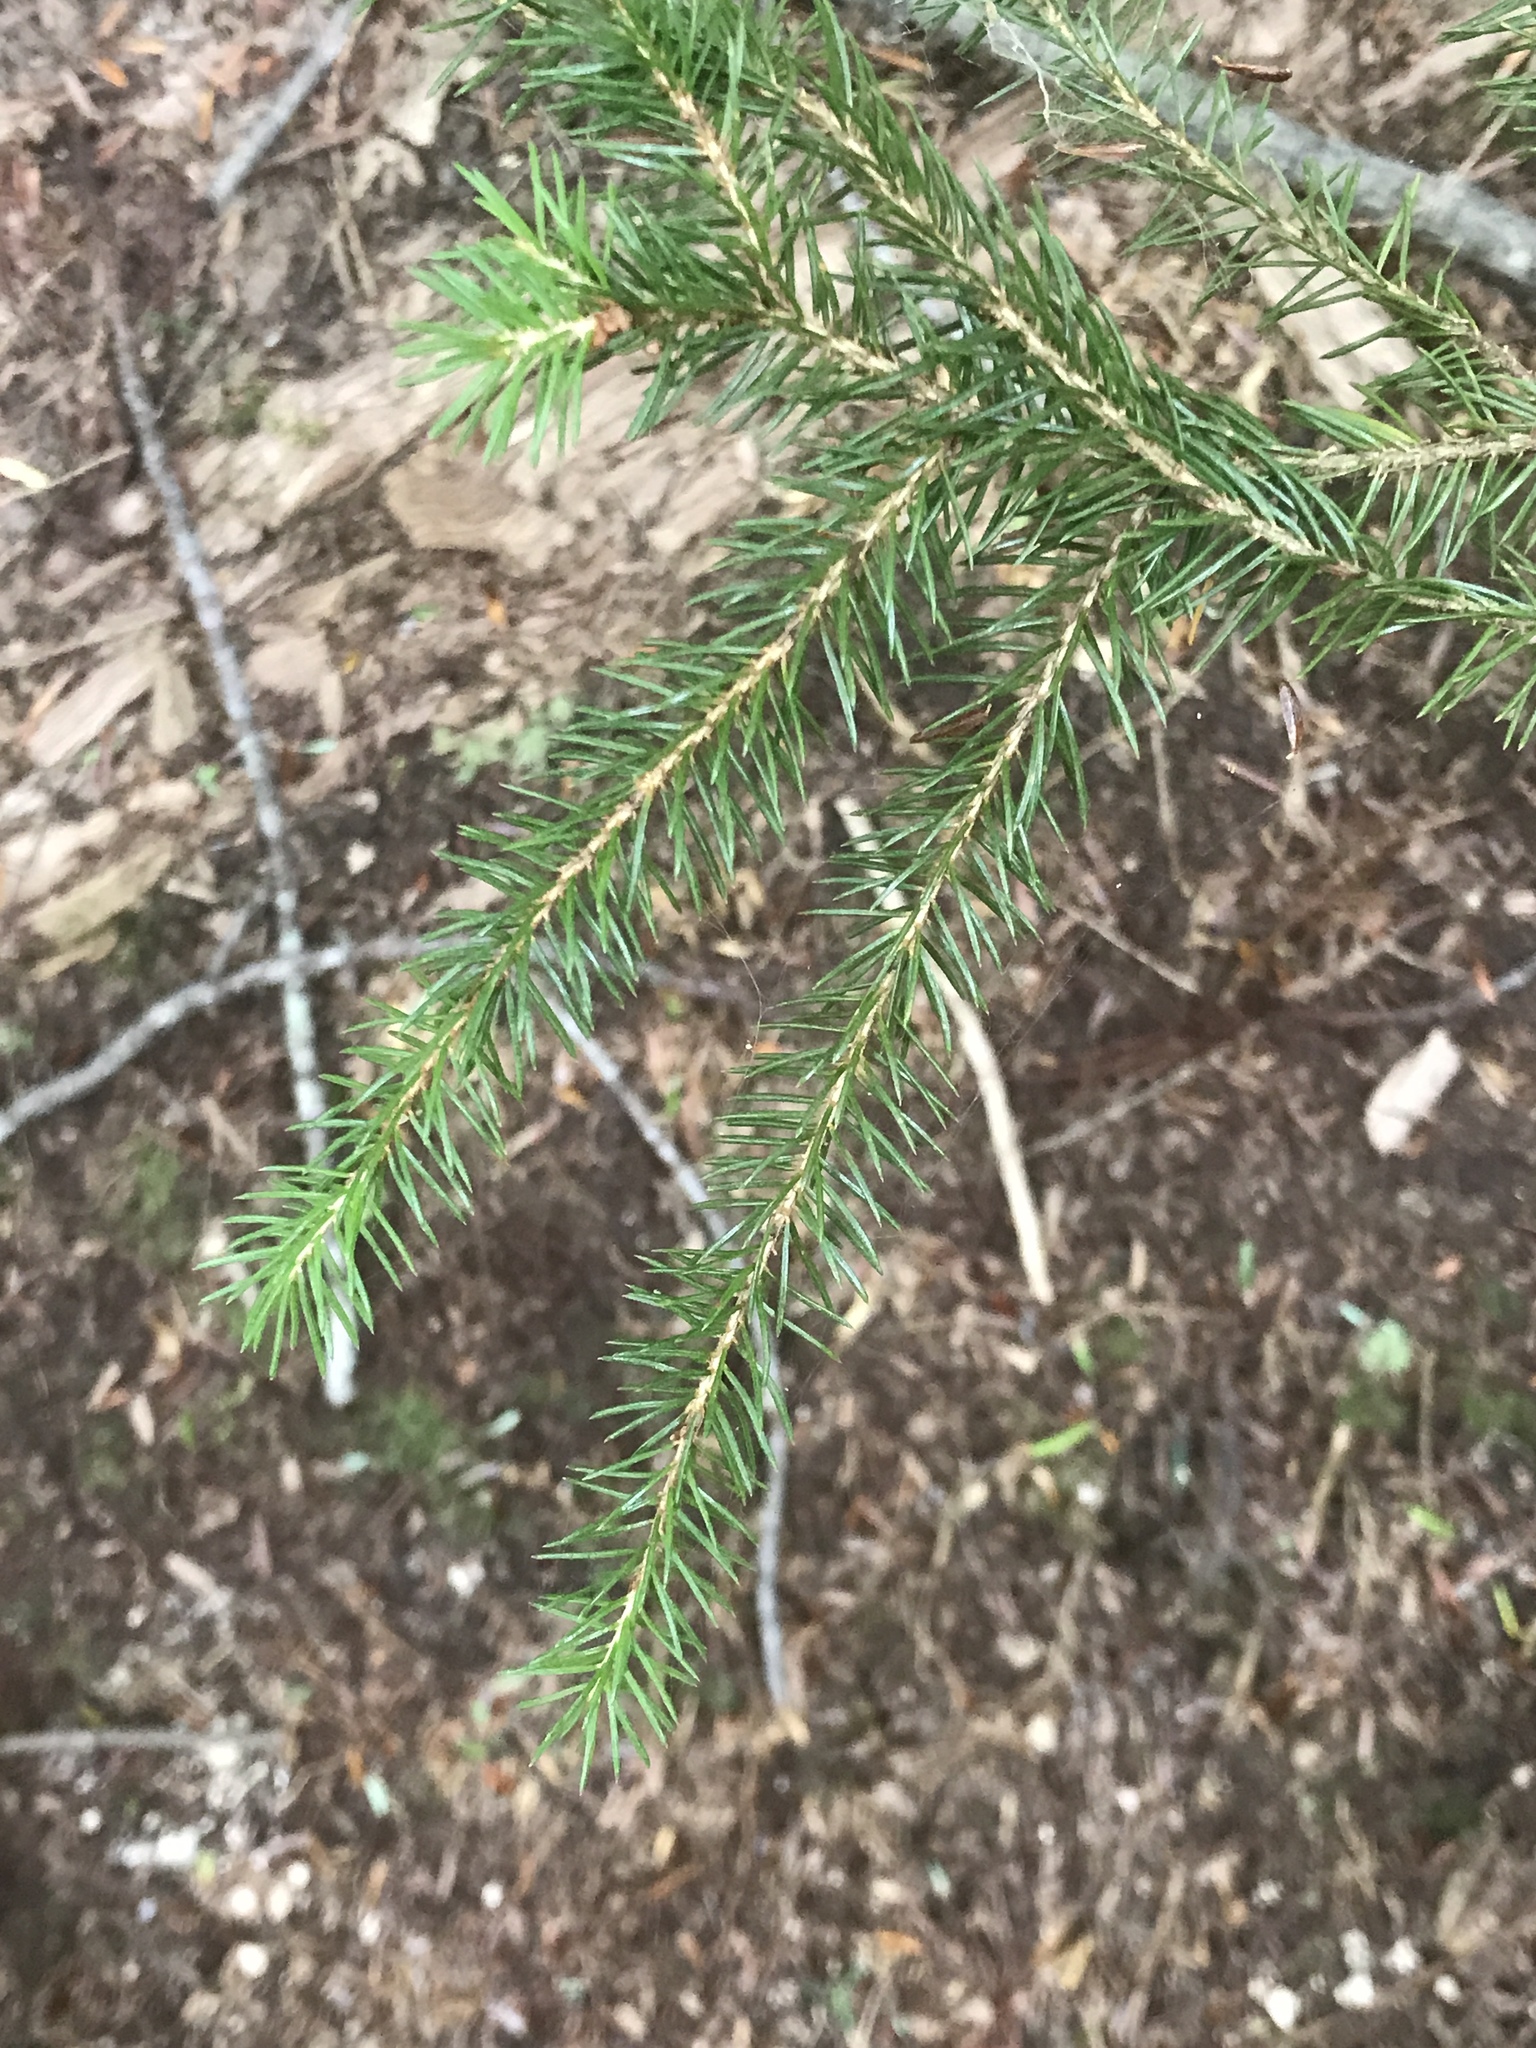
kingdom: Plantae
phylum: Tracheophyta
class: Pinopsida
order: Pinales
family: Pinaceae
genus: Picea
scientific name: Picea rubens
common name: Red spruce
